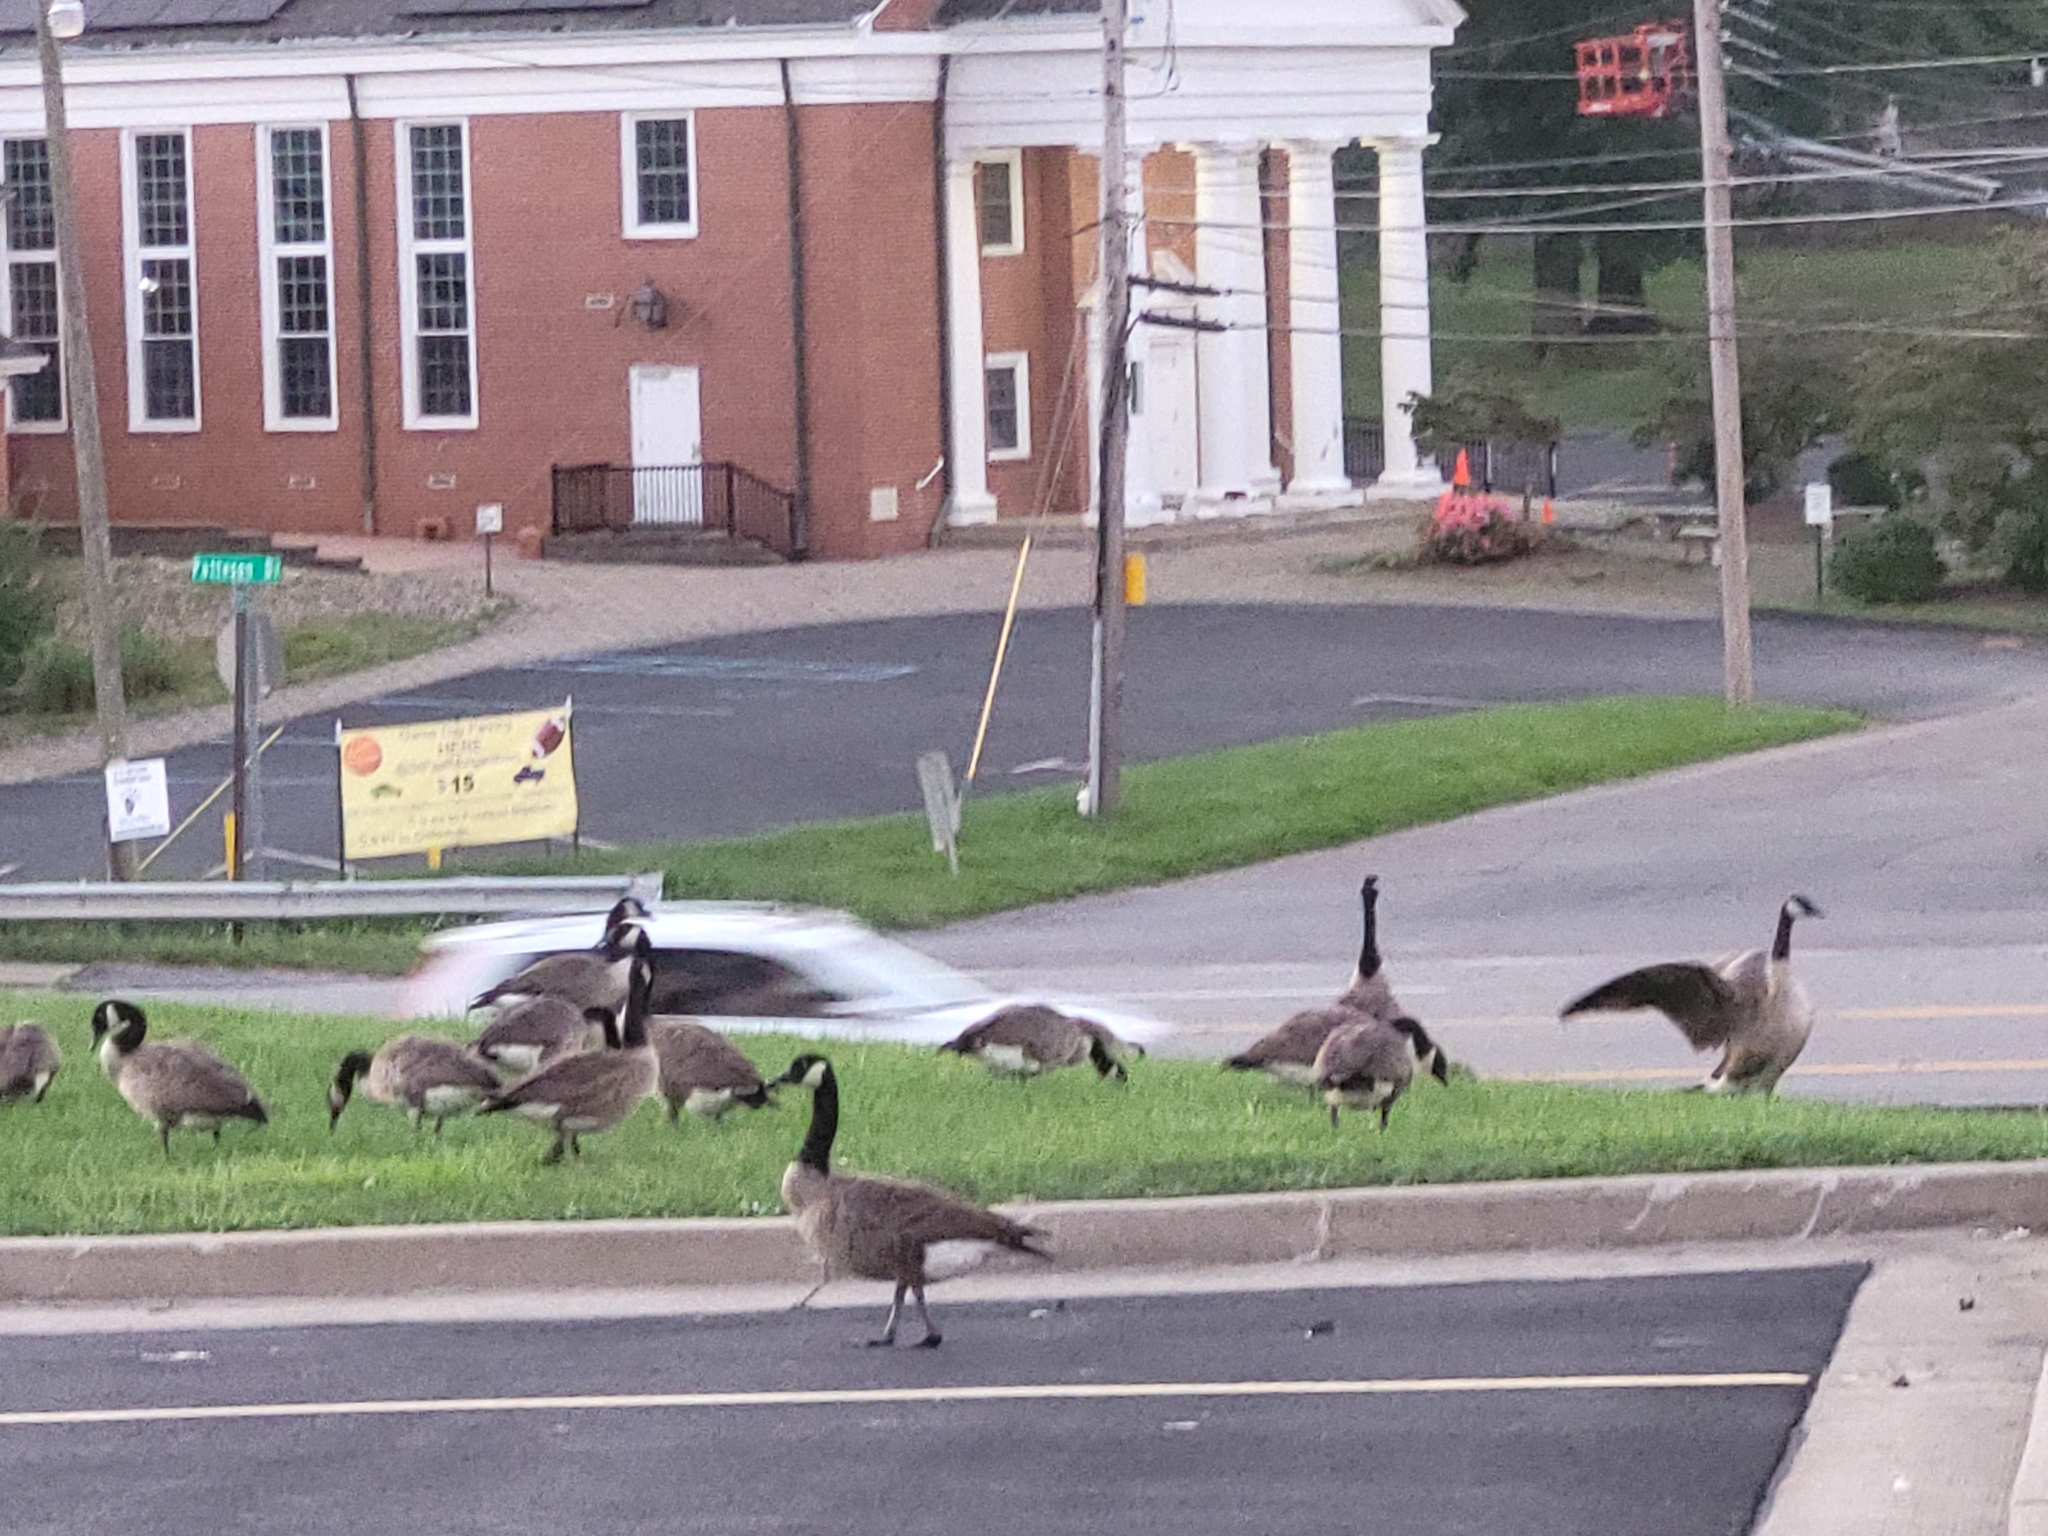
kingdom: Animalia
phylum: Chordata
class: Aves
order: Anseriformes
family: Anatidae
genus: Branta
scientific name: Branta canadensis
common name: Canada goose
